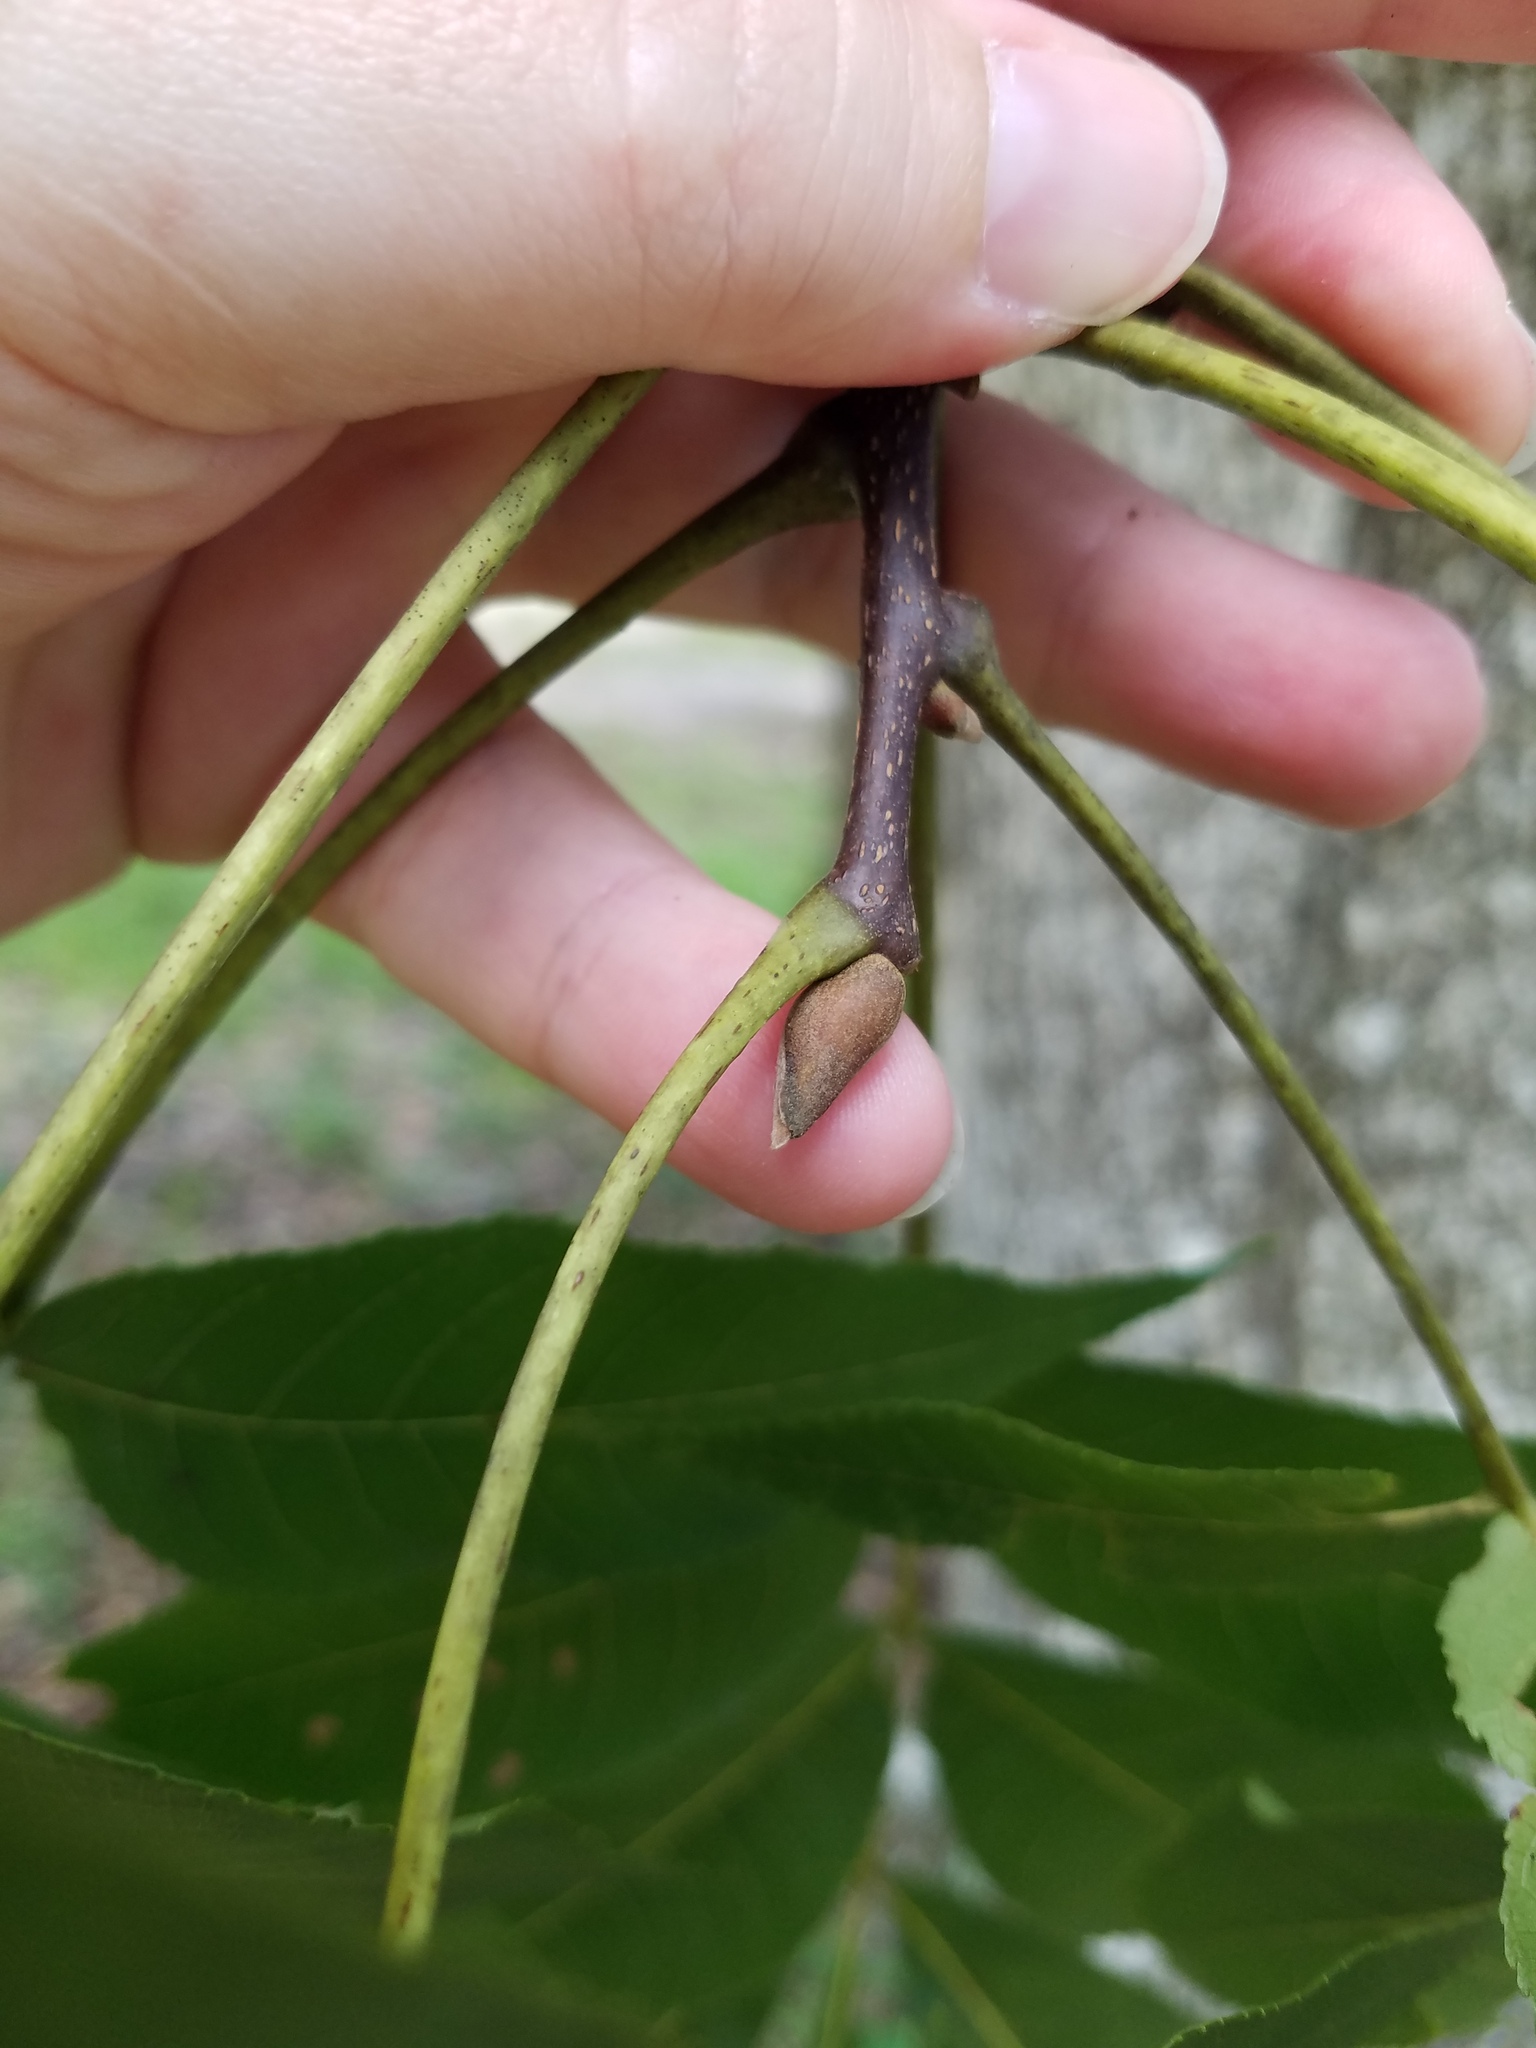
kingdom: Plantae
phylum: Tracheophyta
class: Magnoliopsida
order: Fagales
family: Juglandaceae
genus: Carya
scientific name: Carya glabra
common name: Pignut hickory
